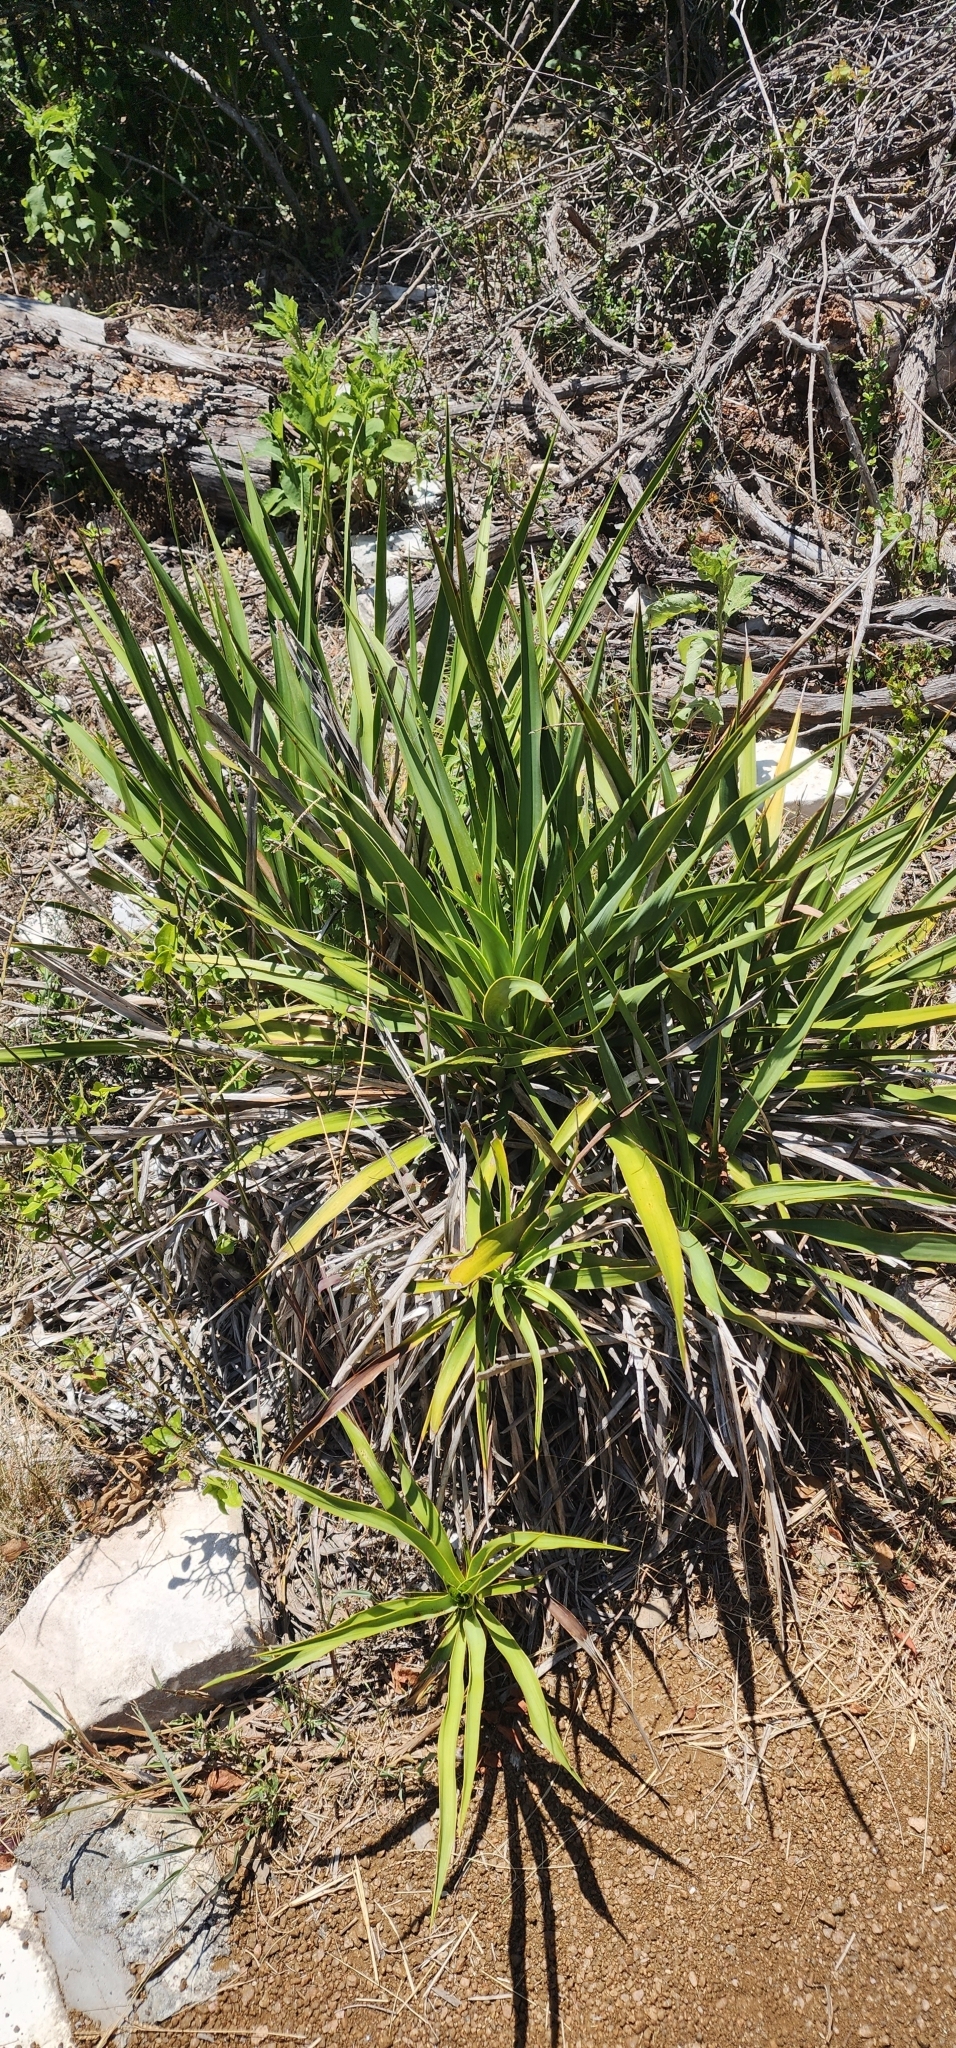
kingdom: Plantae
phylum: Tracheophyta
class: Liliopsida
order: Asparagales
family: Asparagaceae
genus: Yucca
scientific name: Yucca rupicola
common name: Twisted-leaf spanish-dagger
